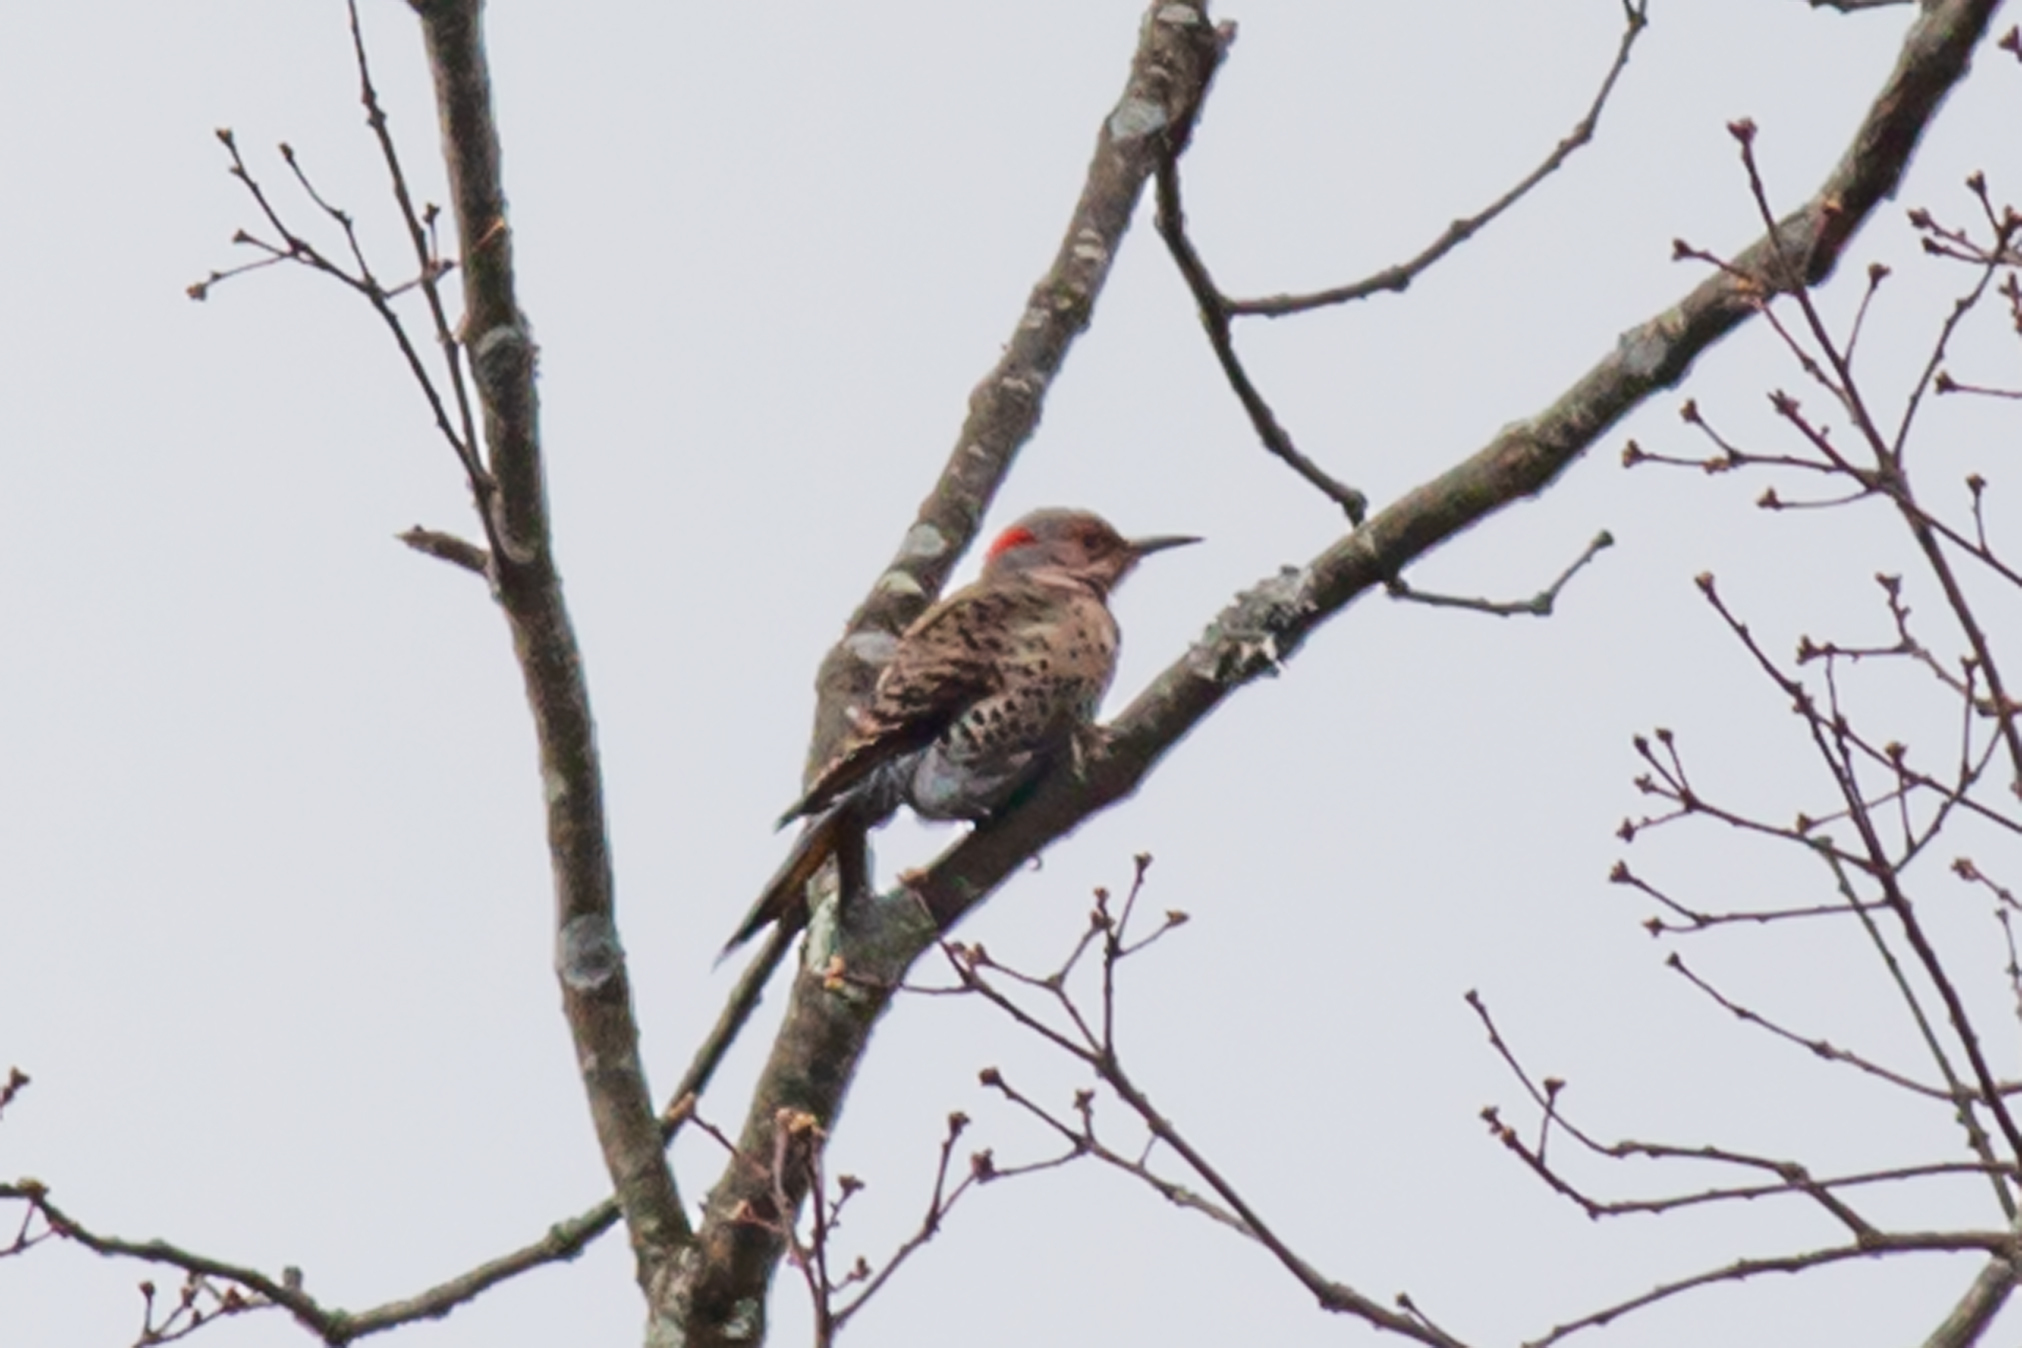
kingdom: Animalia
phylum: Chordata
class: Aves
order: Piciformes
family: Picidae
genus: Colaptes
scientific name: Colaptes auratus
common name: Northern flicker
